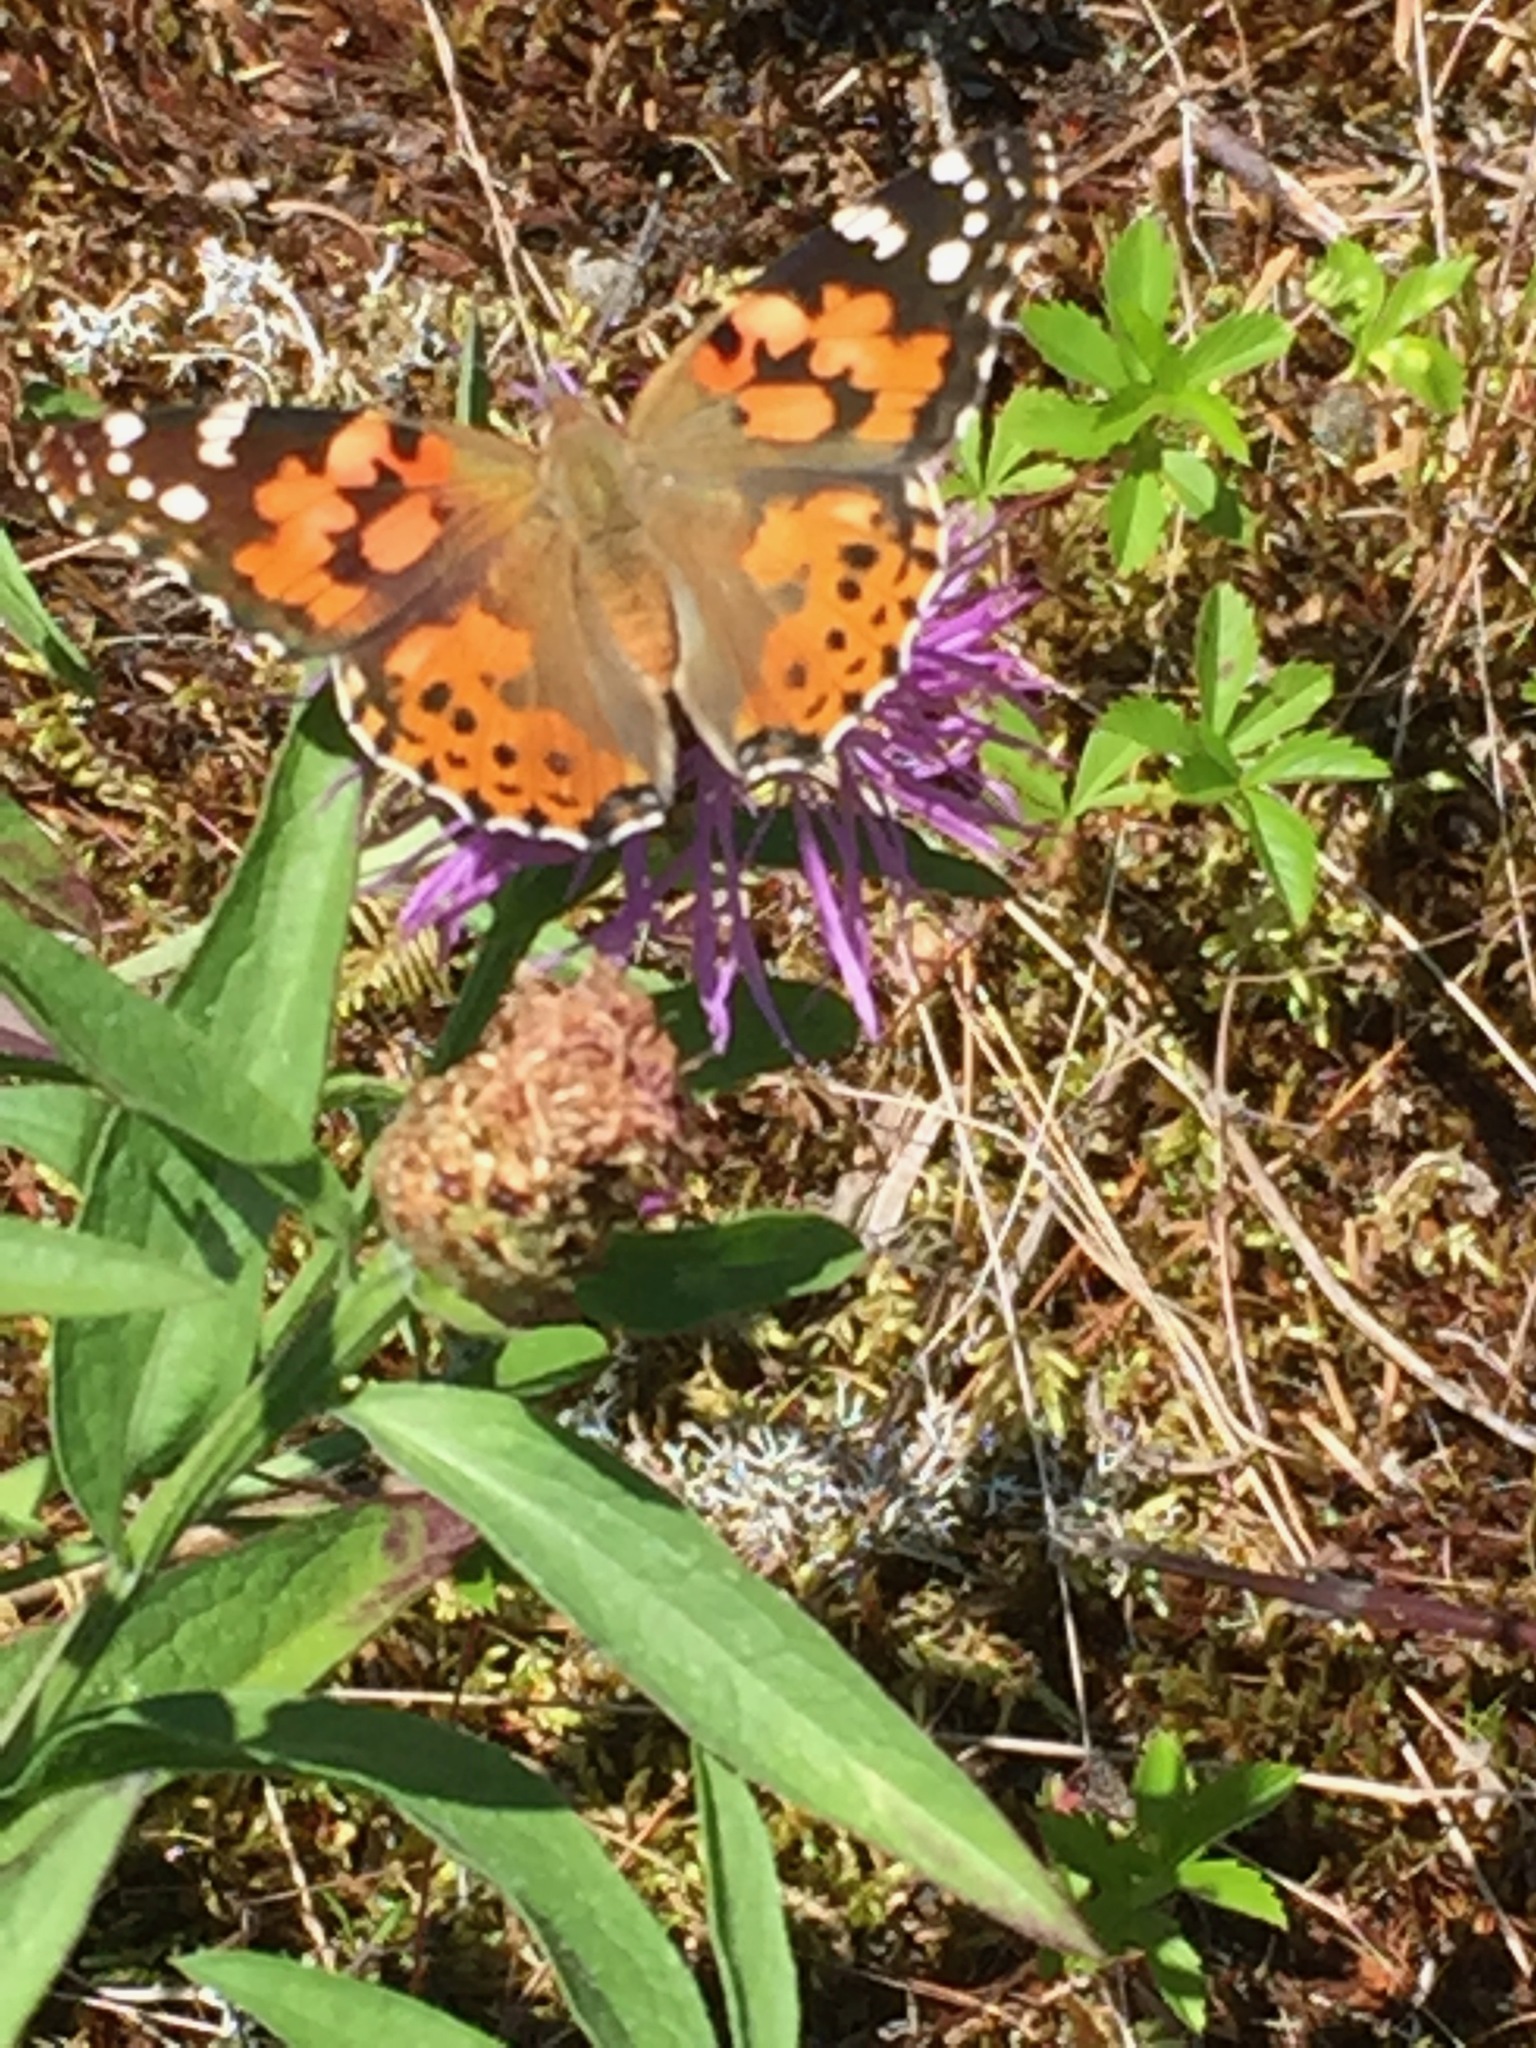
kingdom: Animalia
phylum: Arthropoda
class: Insecta
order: Lepidoptera
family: Nymphalidae
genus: Vanessa
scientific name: Vanessa cardui
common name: Painted lady
